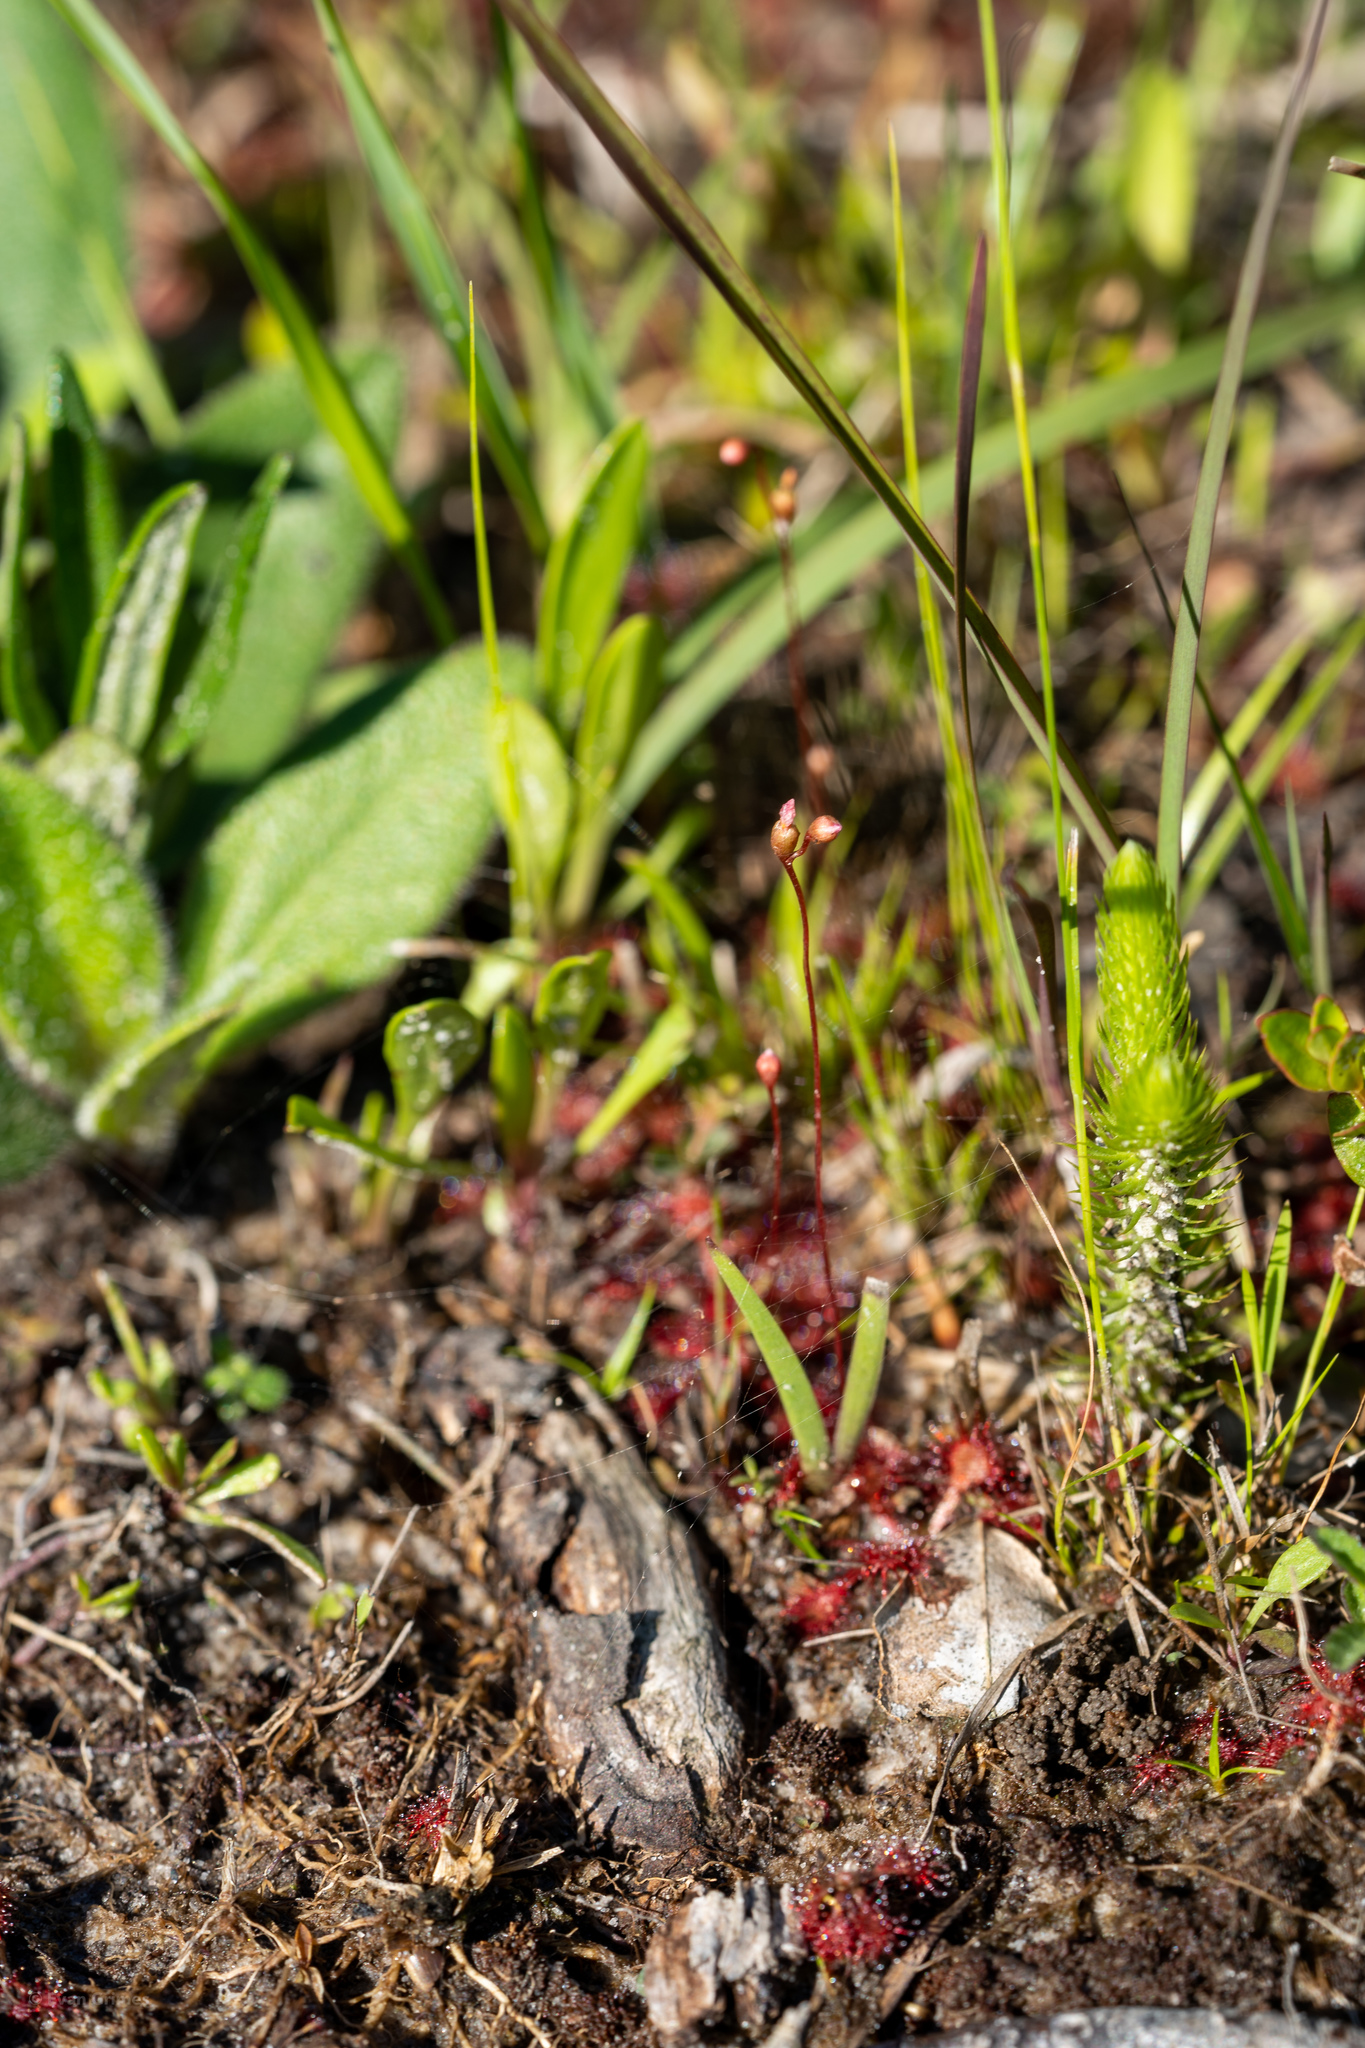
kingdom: Plantae
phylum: Tracheophyta
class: Magnoliopsida
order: Caryophyllales
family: Droseraceae
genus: Drosera
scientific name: Drosera capillaris
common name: Pink sundew
